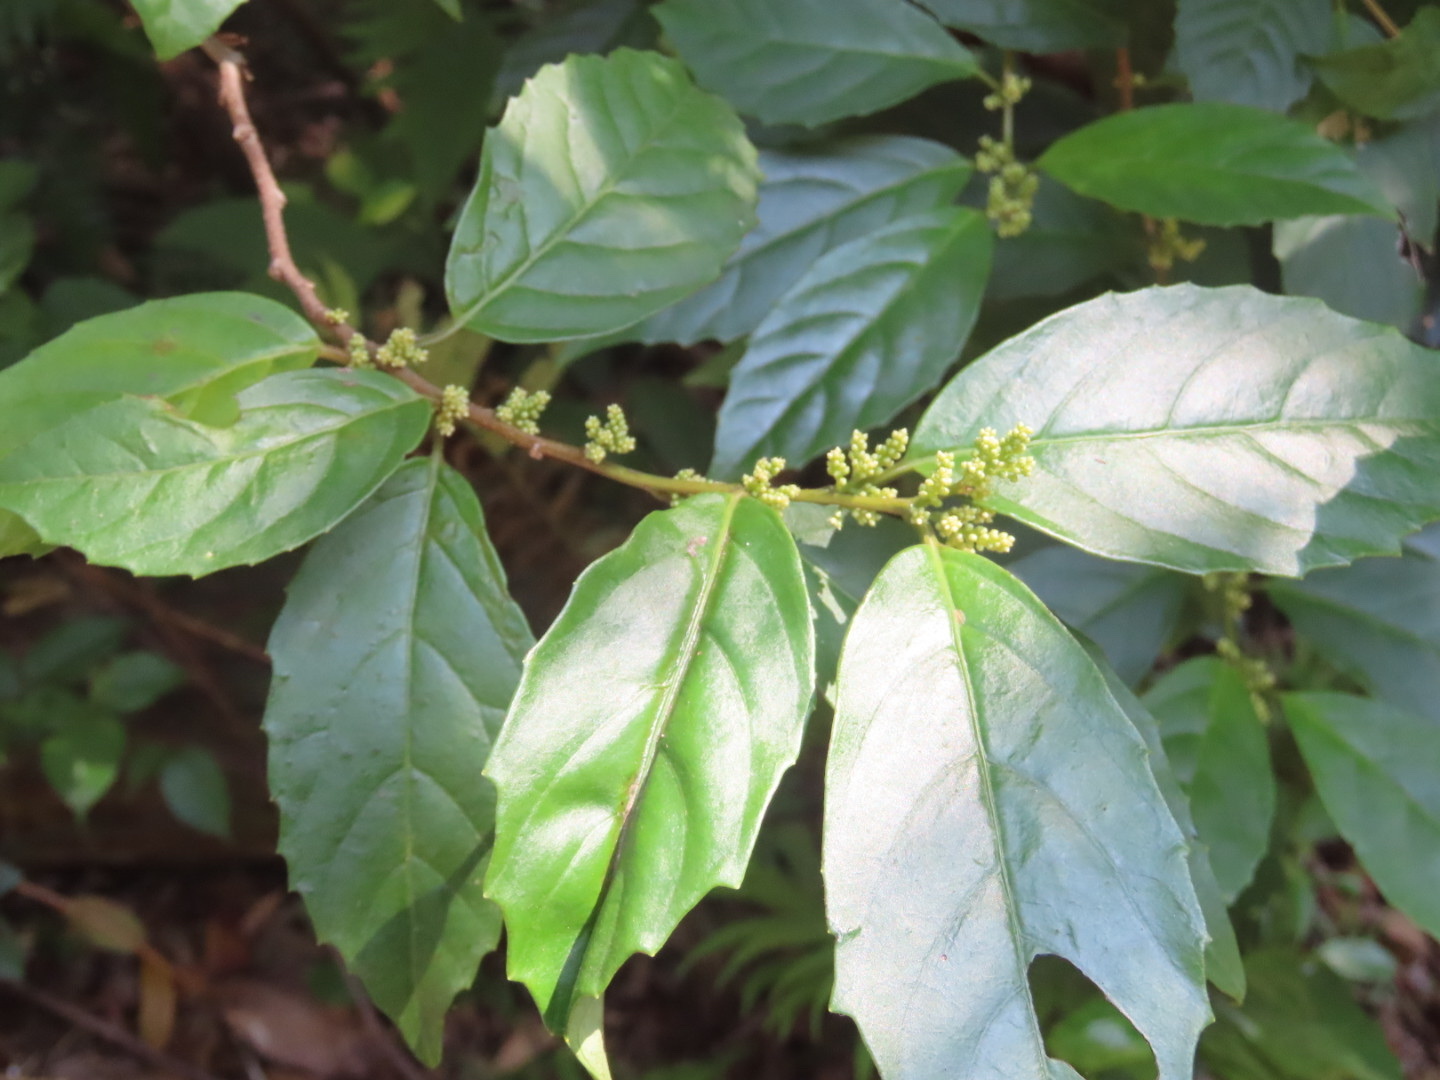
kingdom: Plantae
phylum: Tracheophyta
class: Magnoliopsida
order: Ericales
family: Primulaceae
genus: Maesa
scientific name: Maesa perlaria
